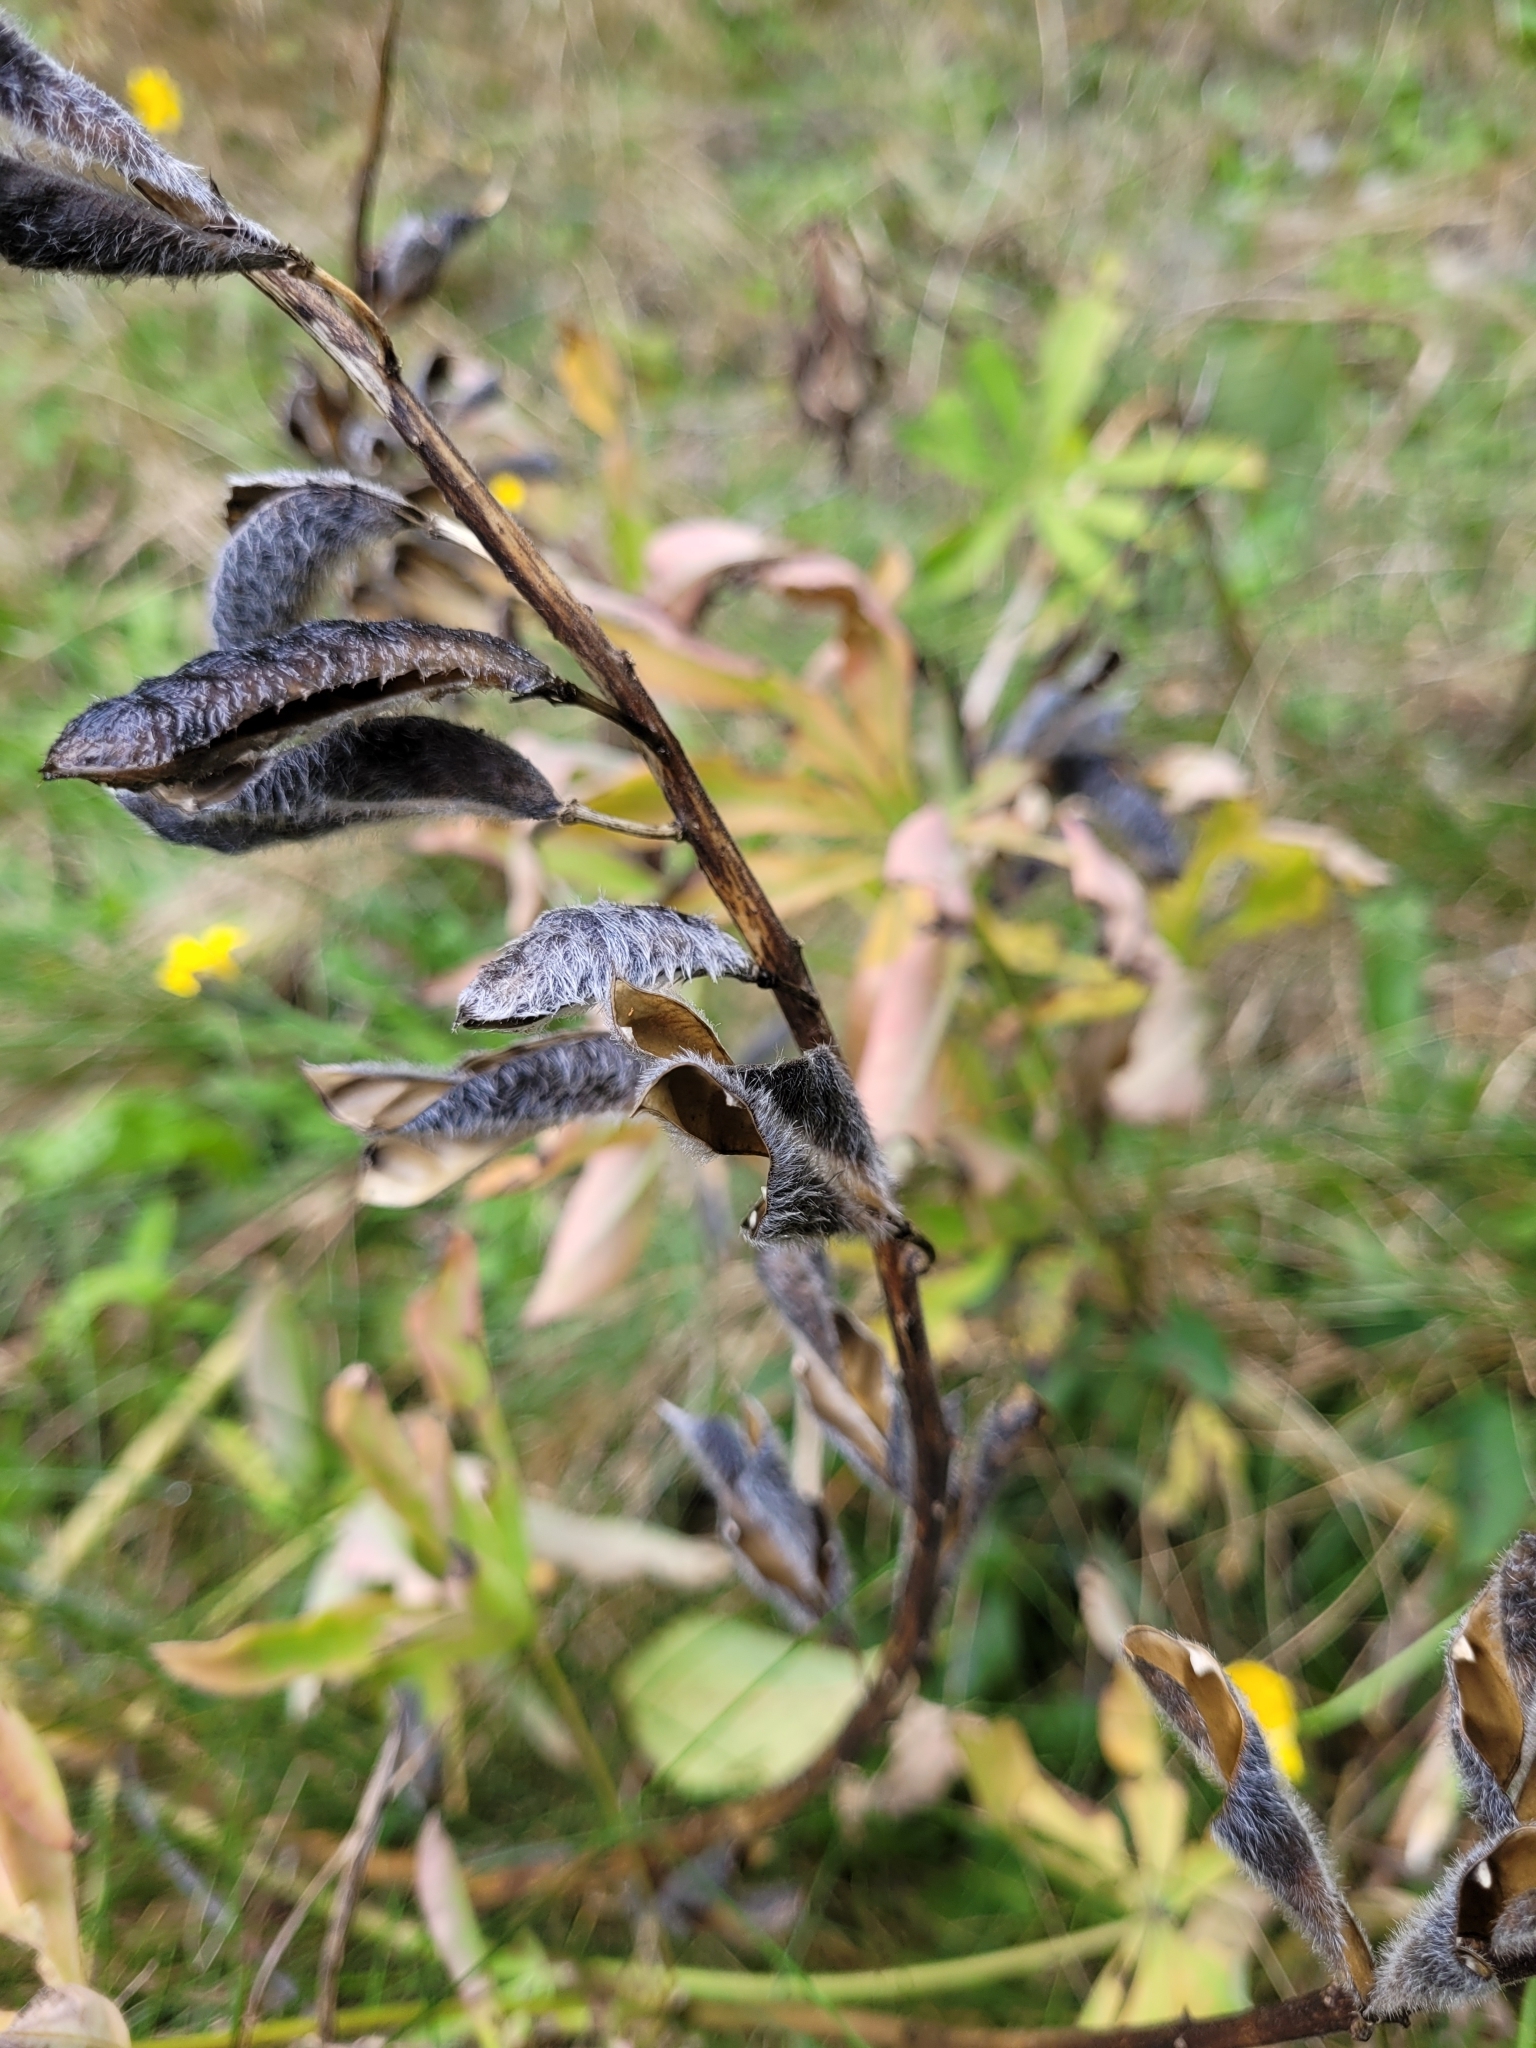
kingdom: Plantae
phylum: Tracheophyta
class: Magnoliopsida
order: Fabales
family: Fabaceae
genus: Lupinus
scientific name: Lupinus polyphyllus
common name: Garden lupin
